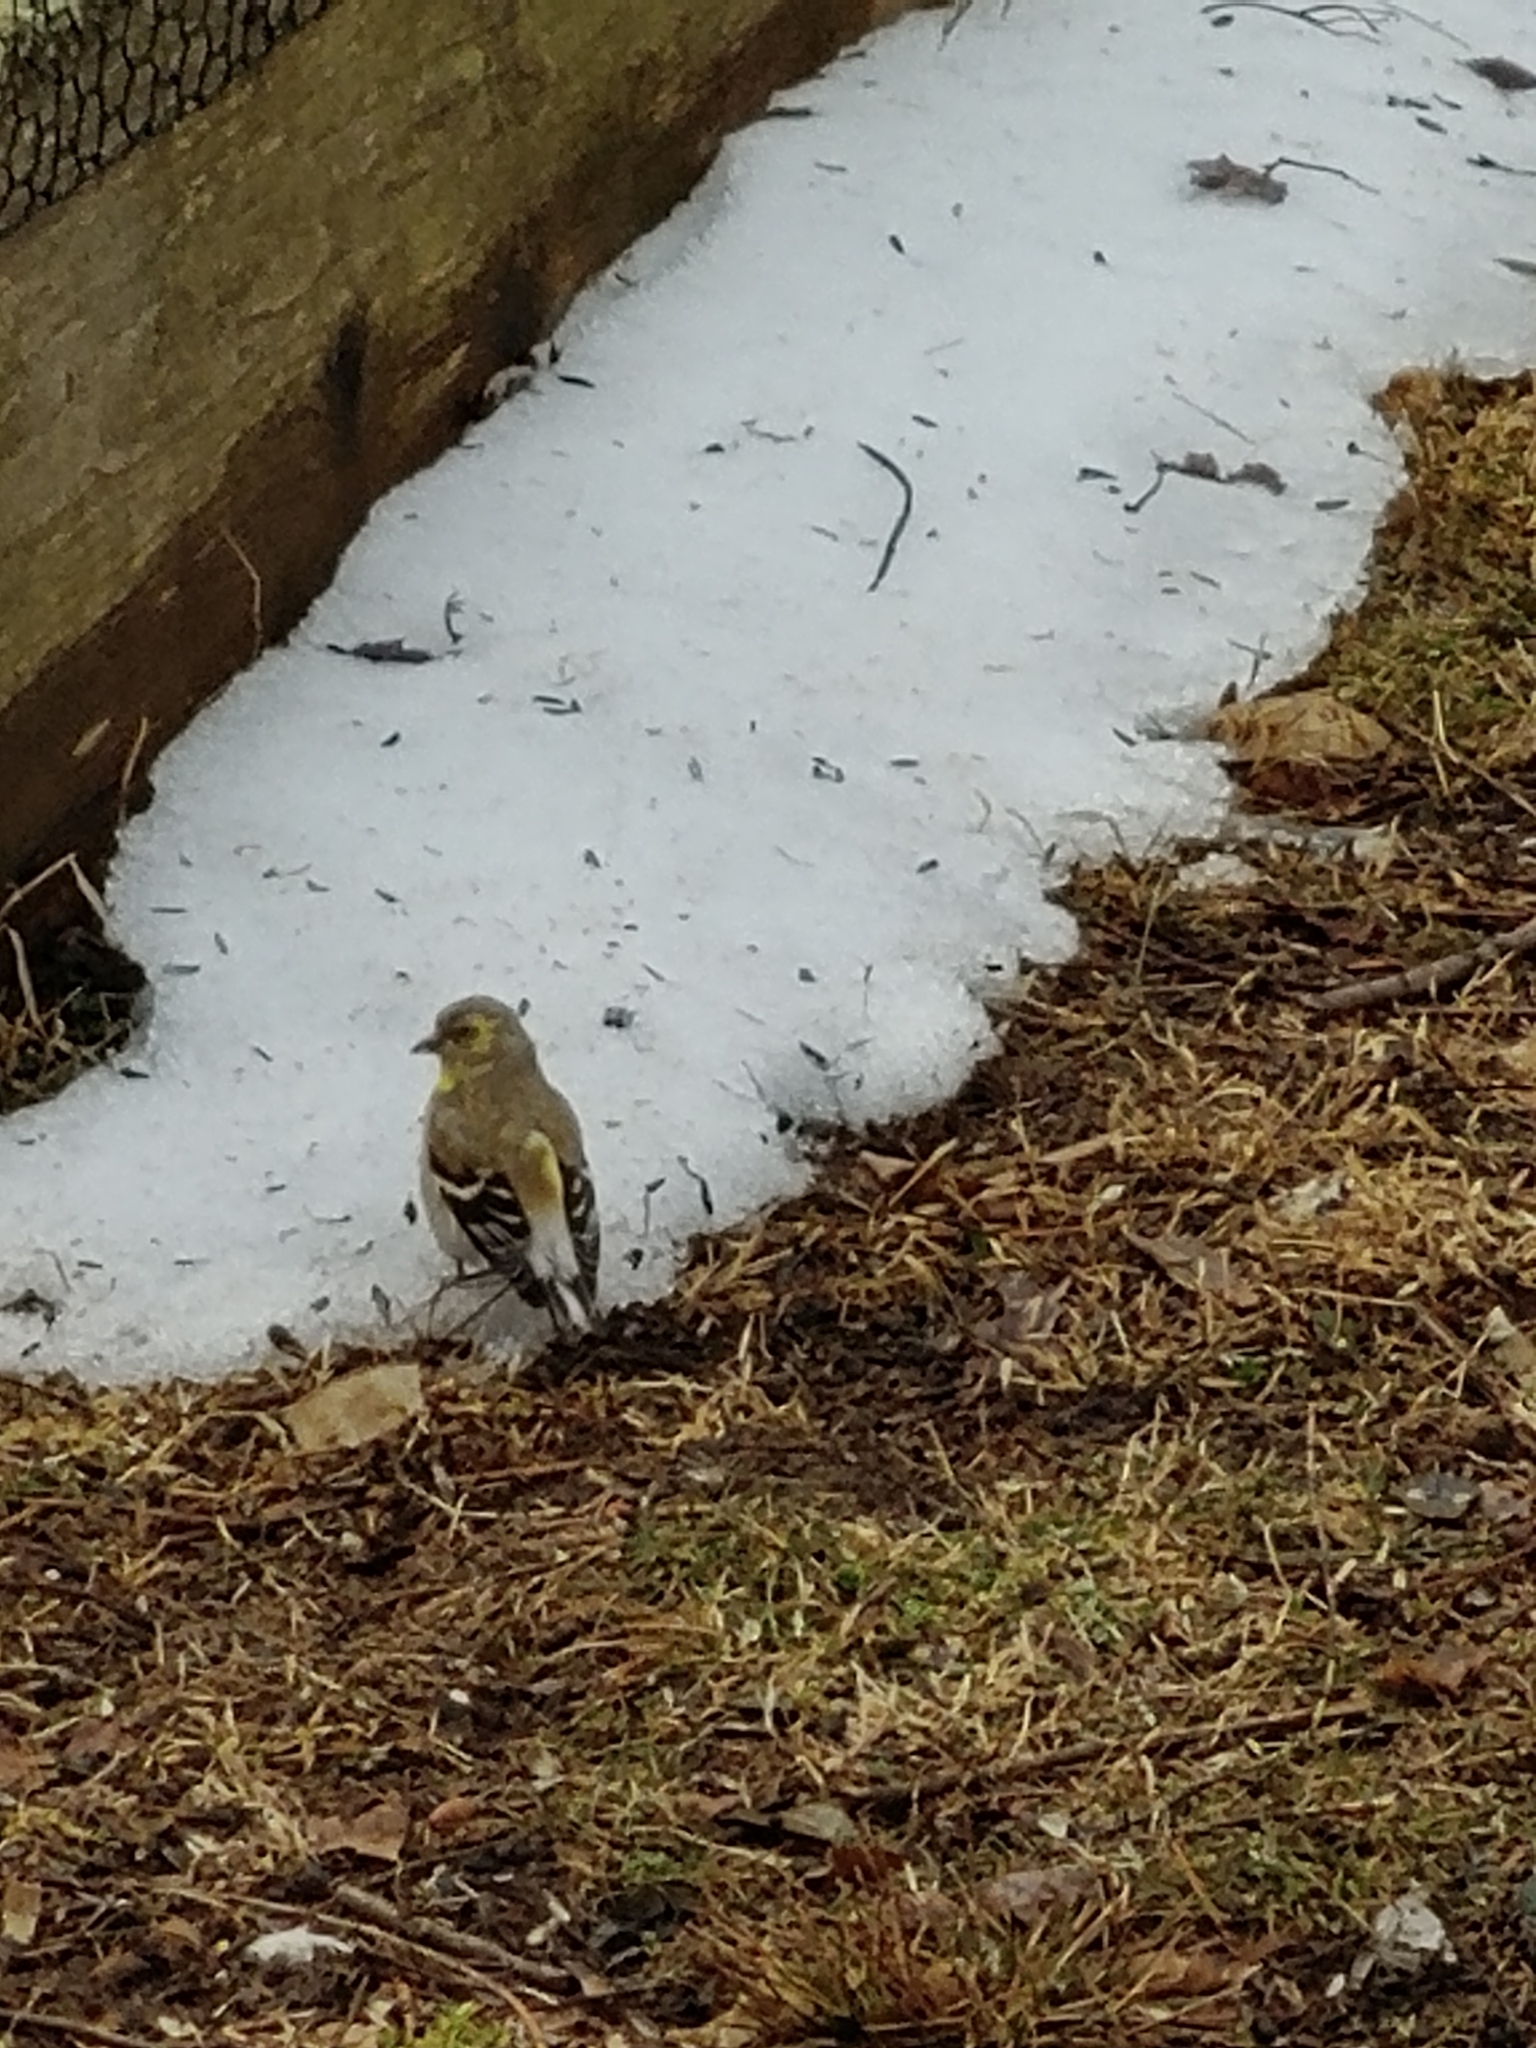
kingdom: Animalia
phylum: Chordata
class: Aves
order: Passeriformes
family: Fringillidae
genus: Spinus
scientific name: Spinus tristis
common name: American goldfinch
